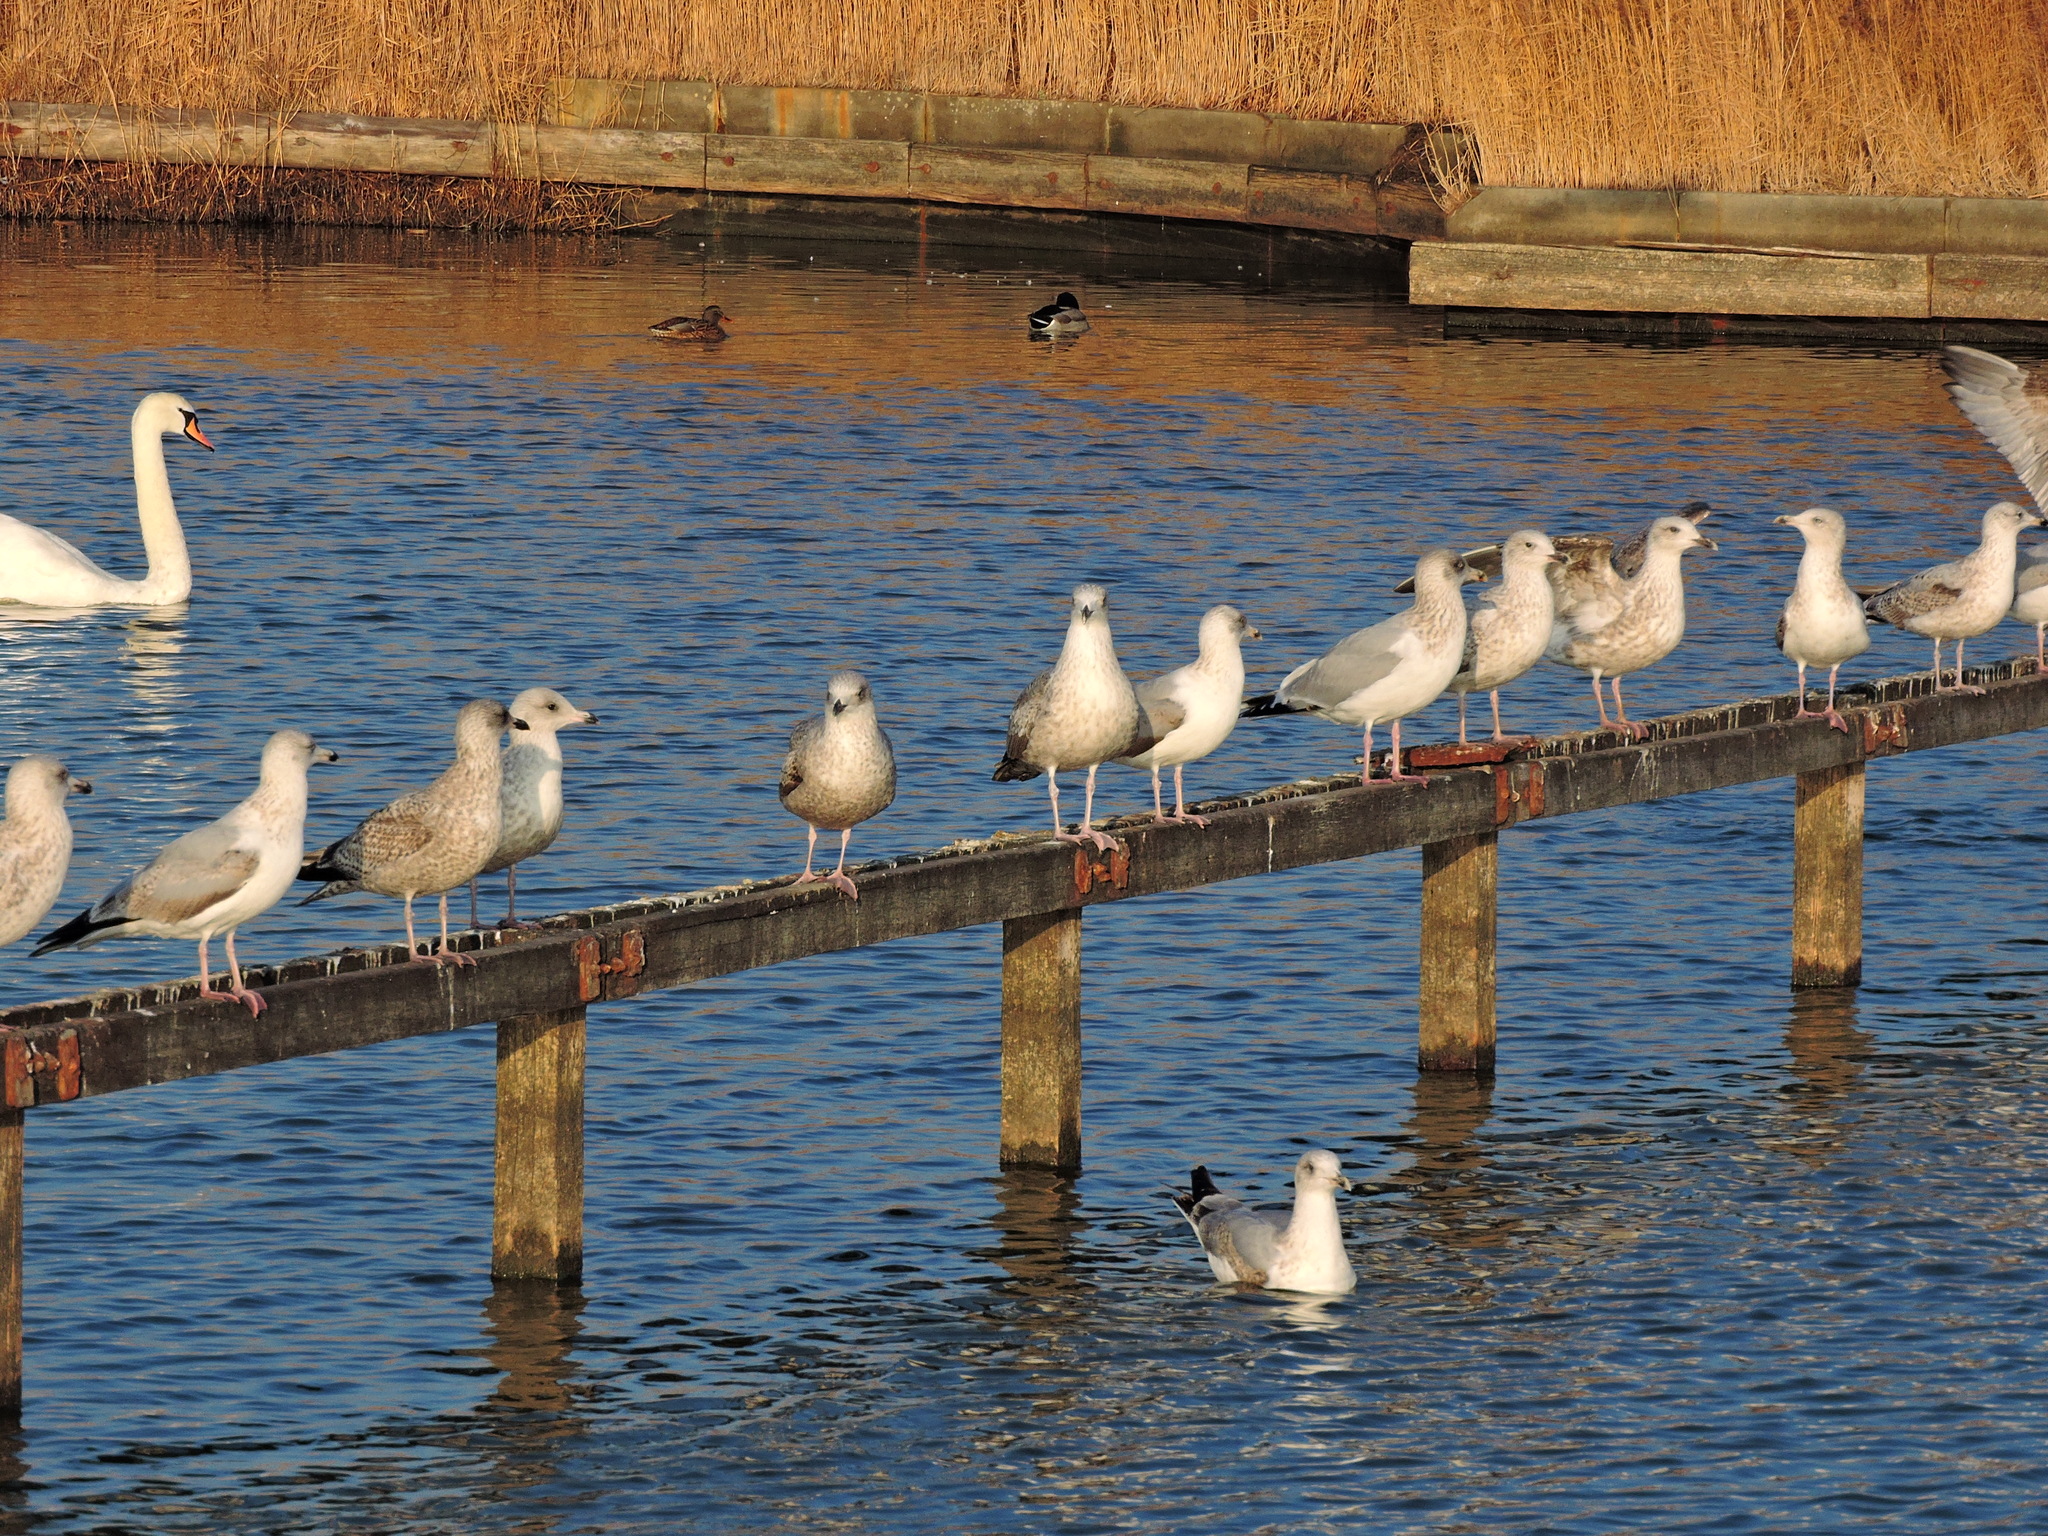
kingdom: Animalia
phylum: Chordata
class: Aves
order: Charadriiformes
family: Laridae
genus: Larus
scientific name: Larus argentatus
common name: Herring gull
